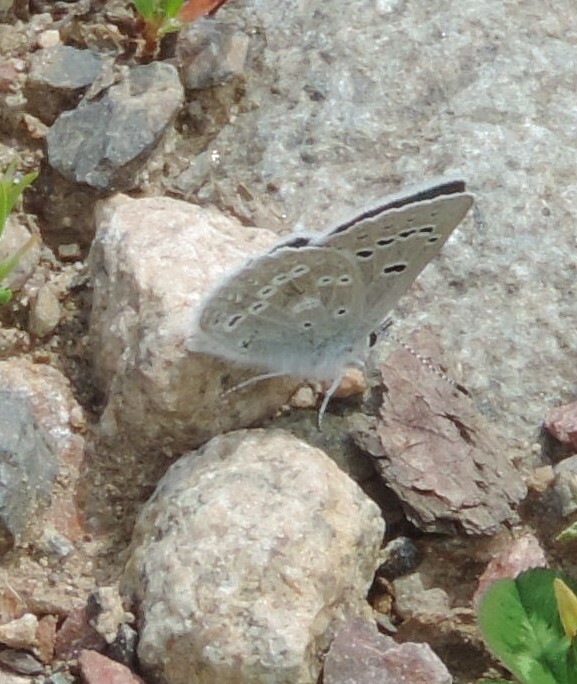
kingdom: Animalia
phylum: Arthropoda
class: Insecta
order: Lepidoptera
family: Lycaenidae
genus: Icaricia
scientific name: Icaricia icarioides
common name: Boisduval's blue
